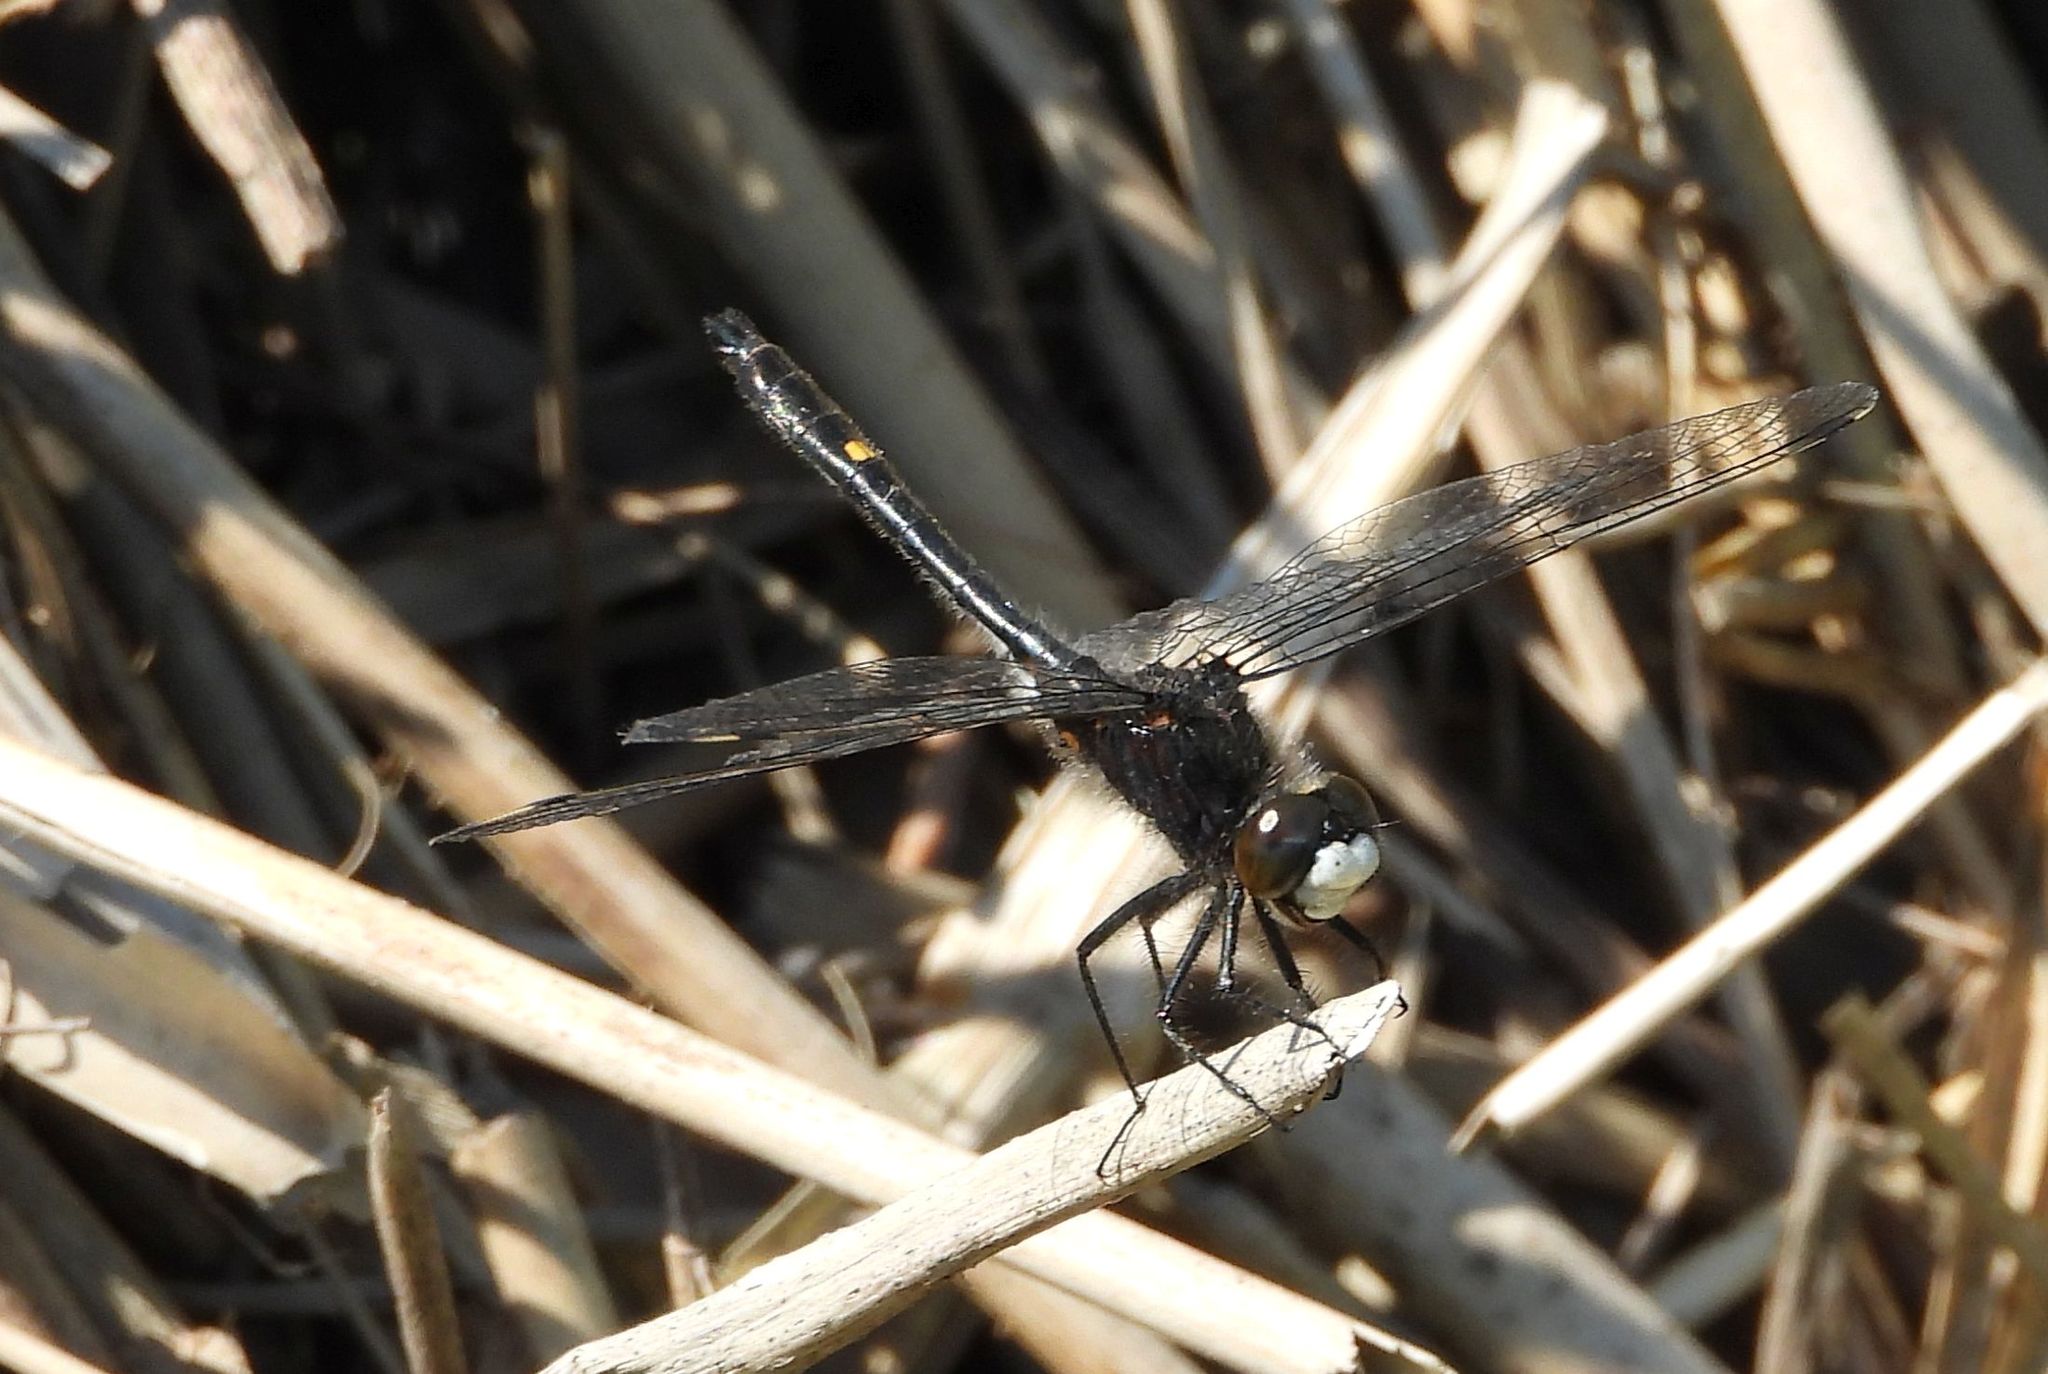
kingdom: Animalia
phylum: Arthropoda
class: Insecta
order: Odonata
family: Libellulidae
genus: Leucorrhinia
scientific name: Leucorrhinia intacta
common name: Dot-tailed whiteface
